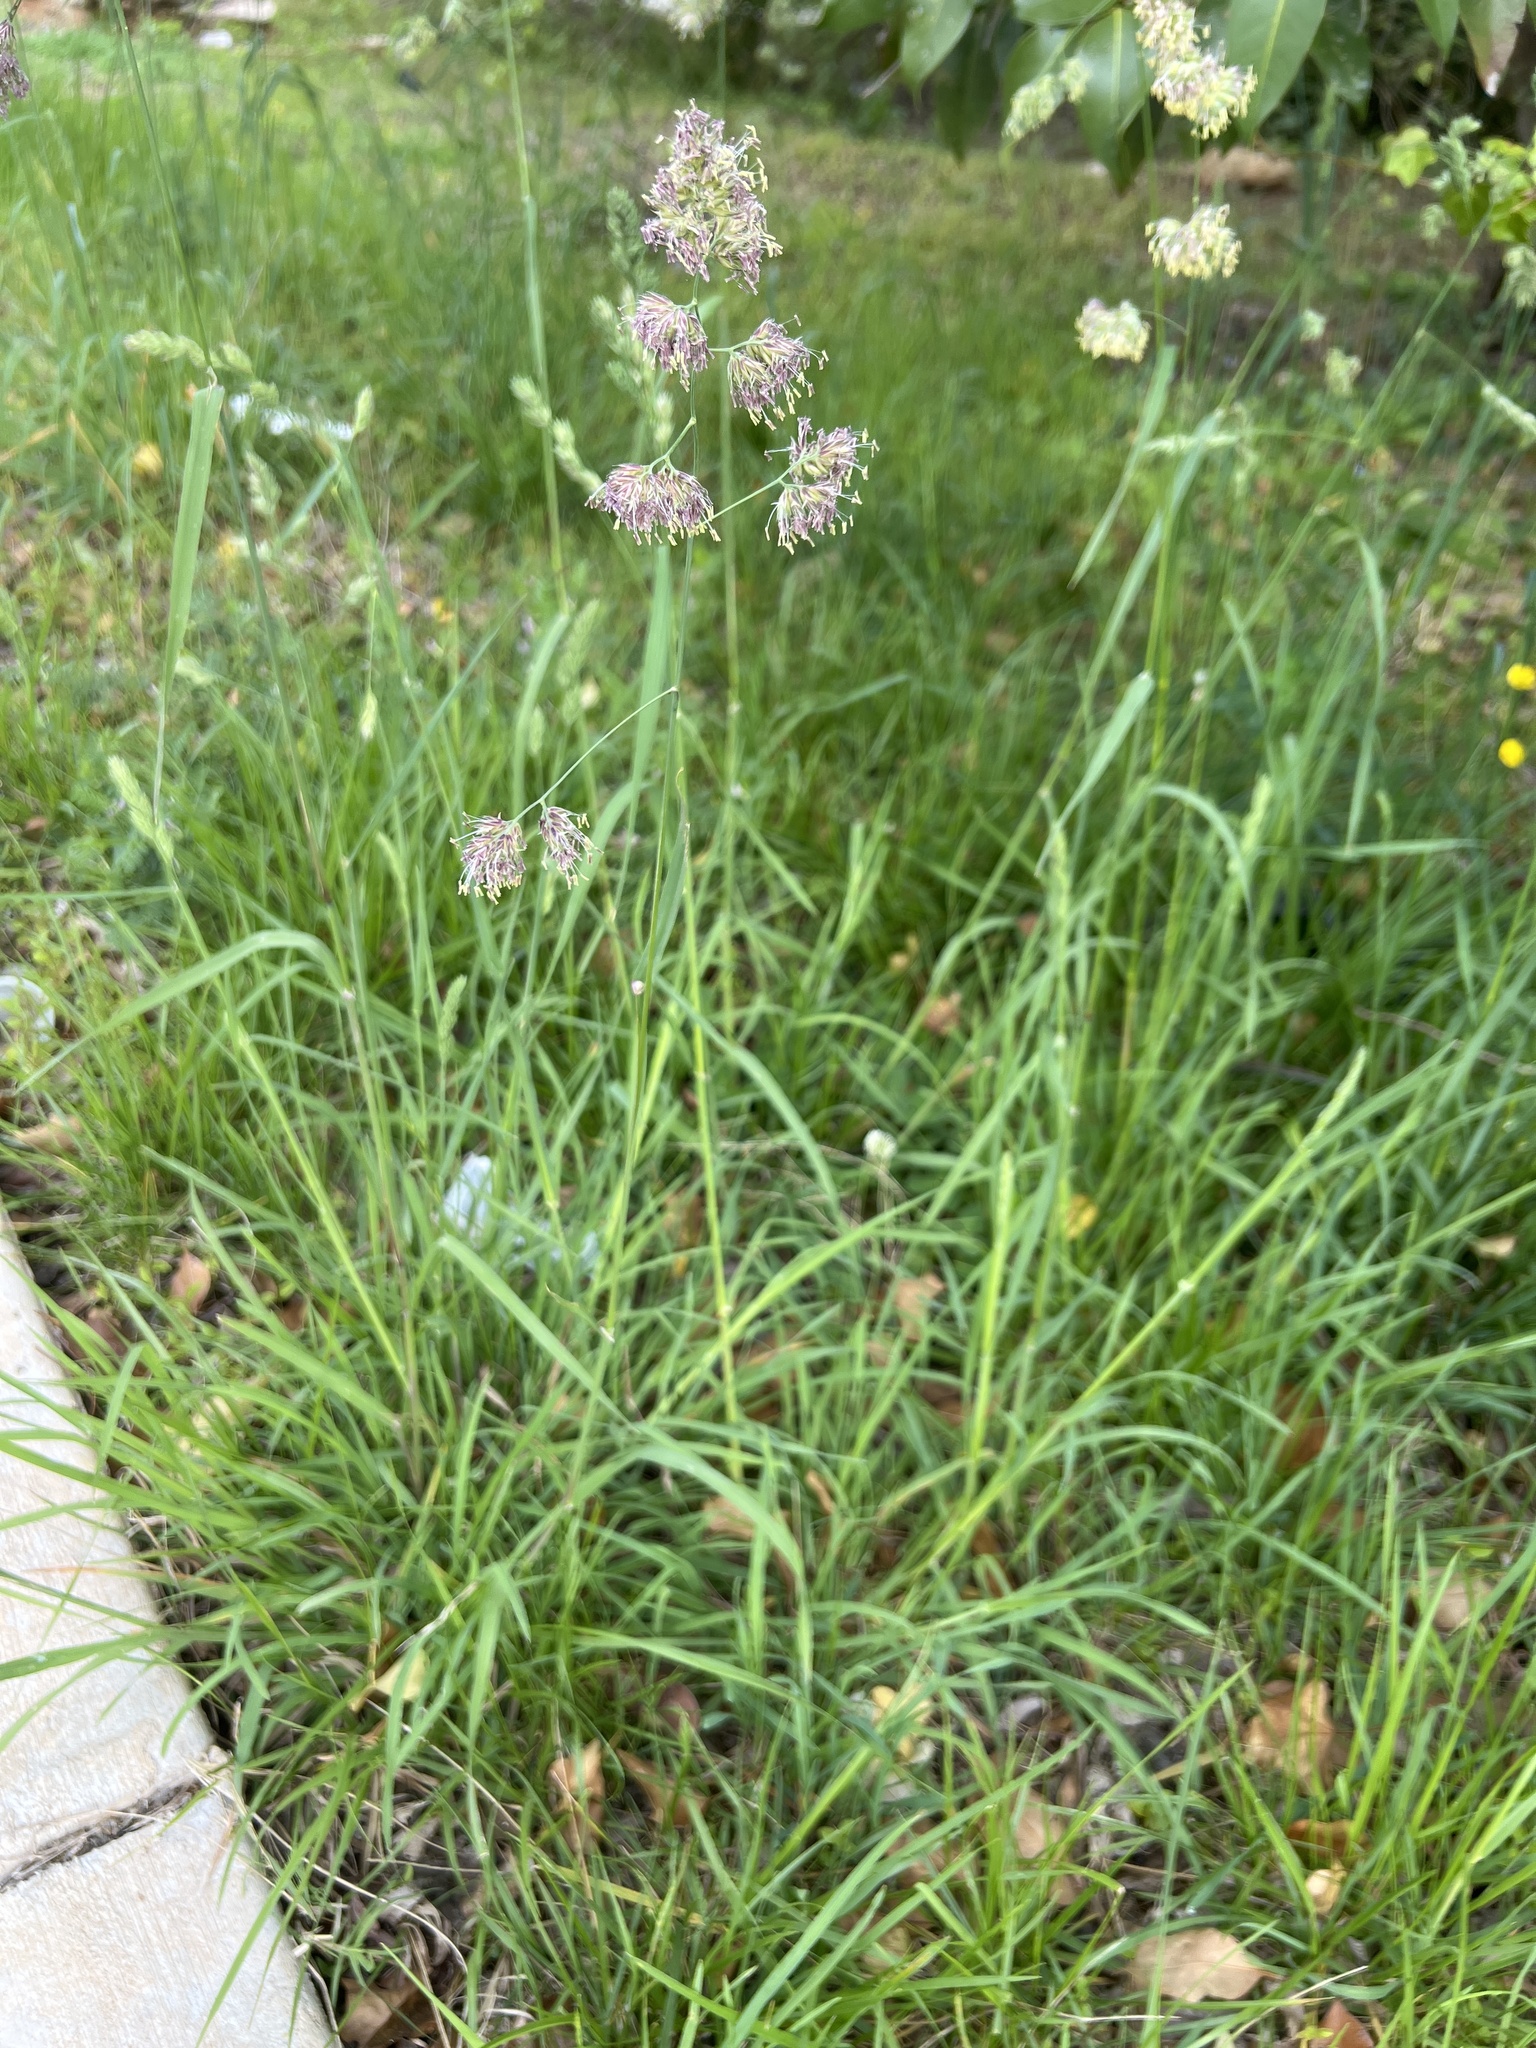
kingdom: Plantae
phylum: Tracheophyta
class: Liliopsida
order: Poales
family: Poaceae
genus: Dactylis
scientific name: Dactylis glomerata
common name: Orchardgrass
